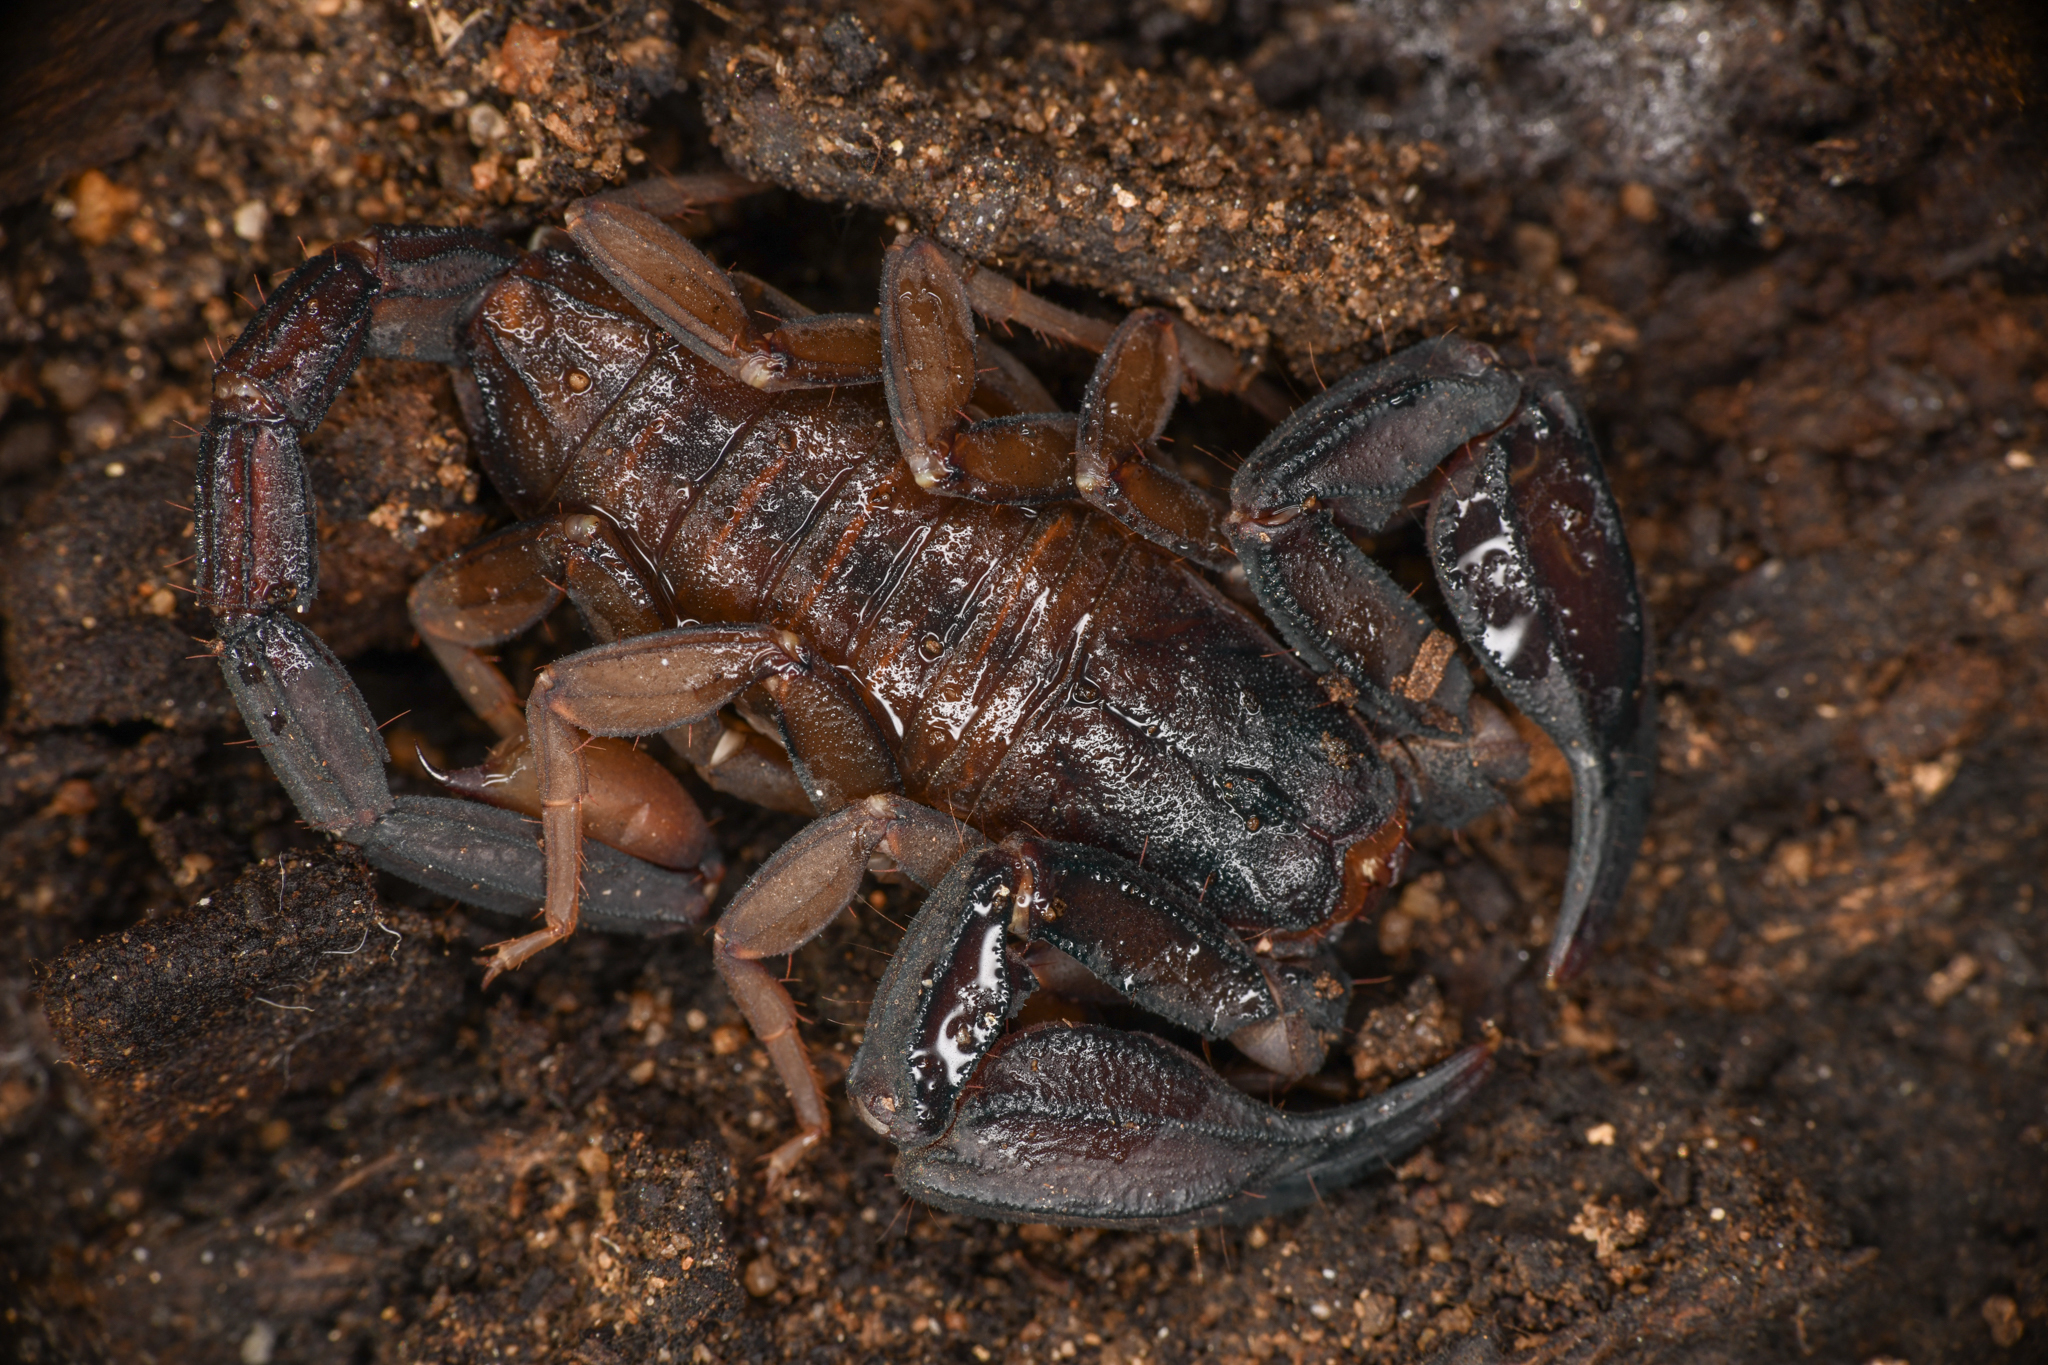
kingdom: Animalia
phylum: Arthropoda
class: Arachnida
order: Scorpiones
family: Vaejovidae
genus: Kovarikia
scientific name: Kovarikia williamsi
